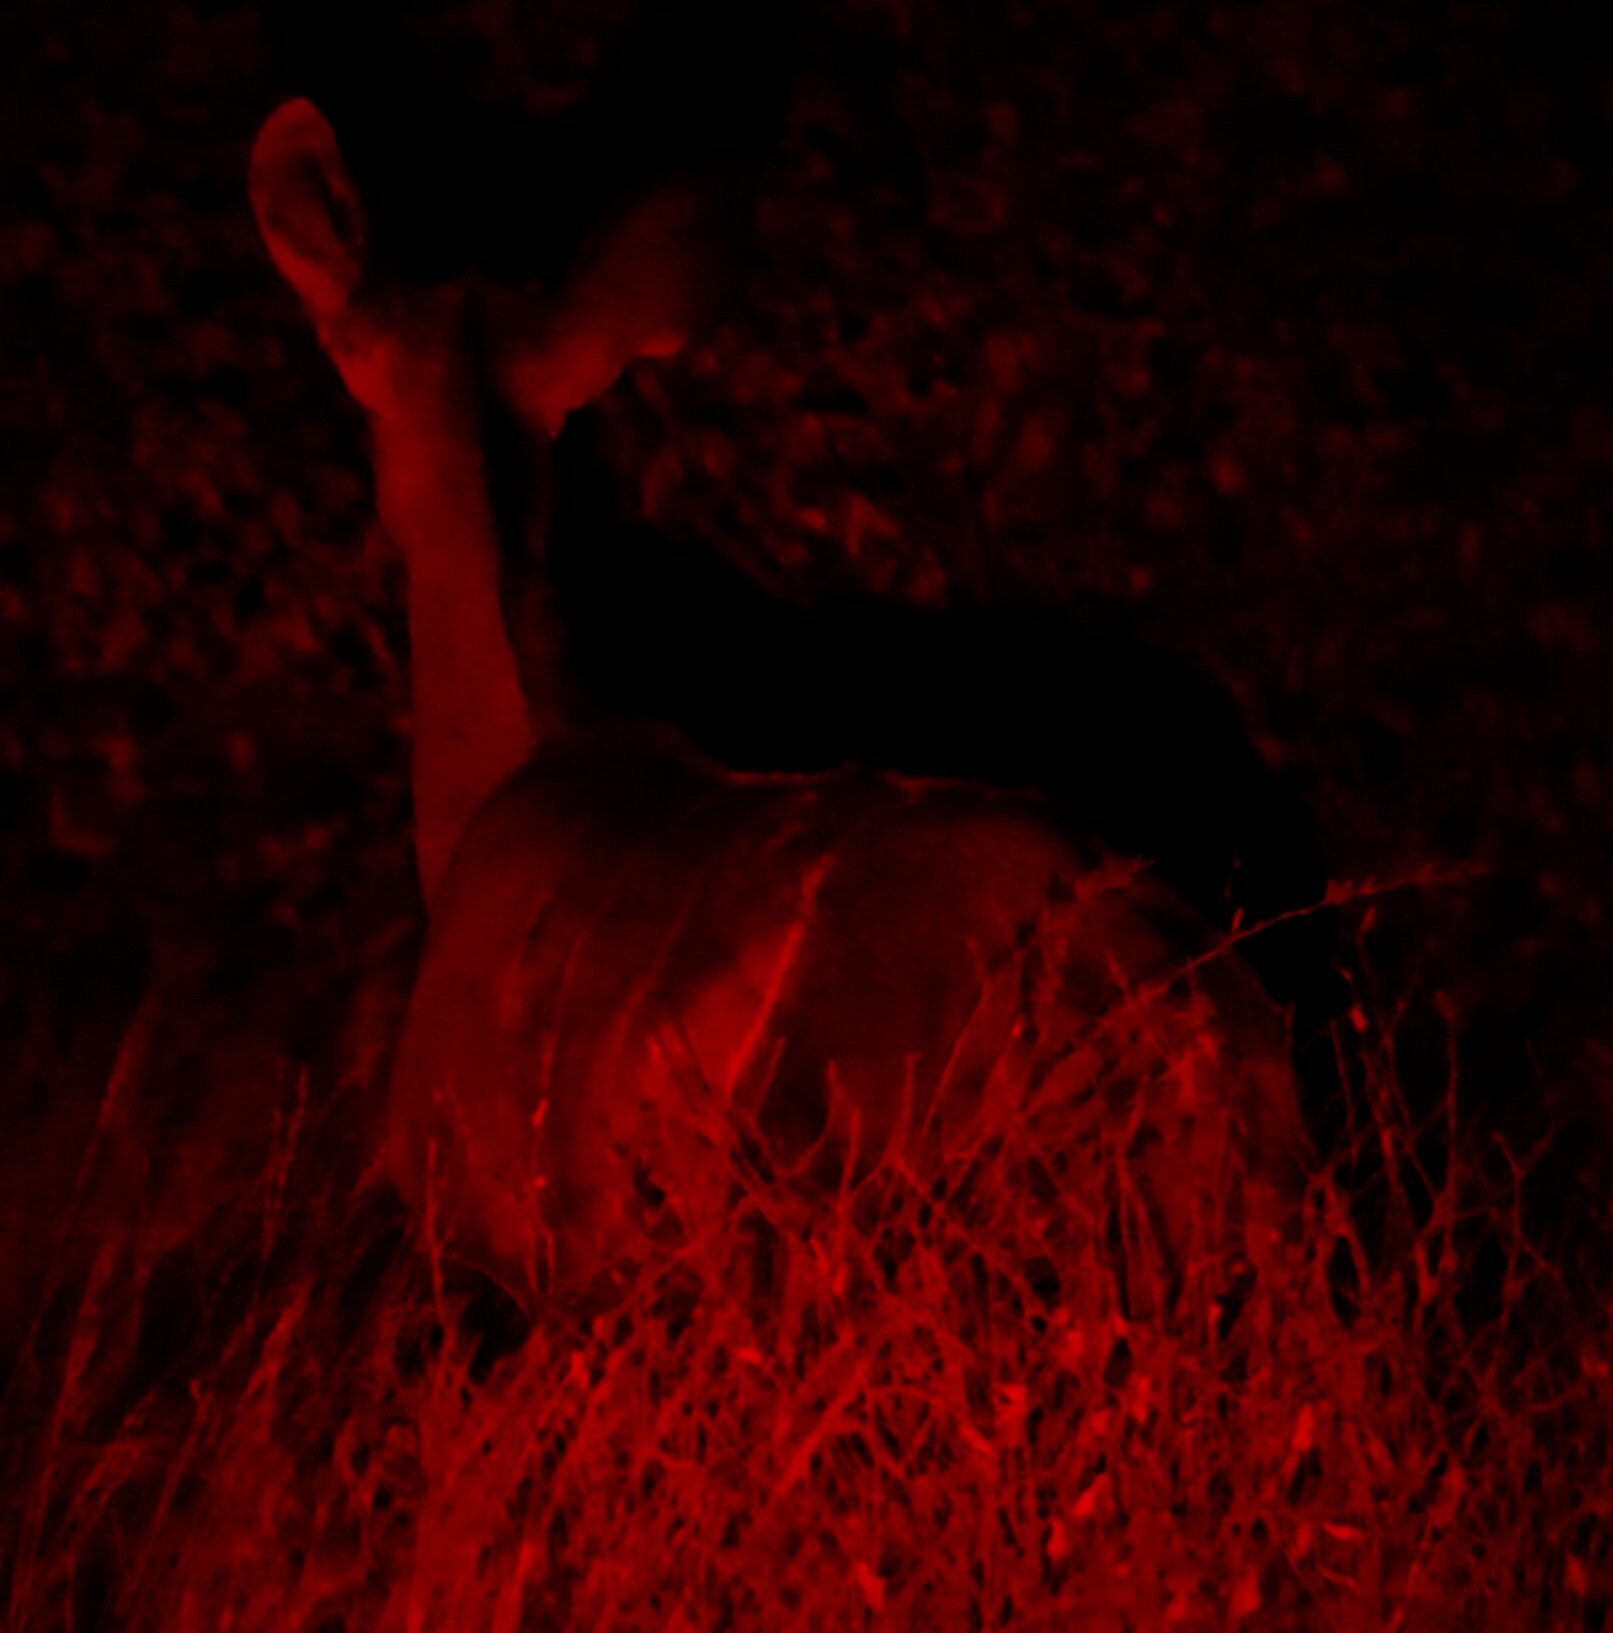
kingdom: Animalia
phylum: Chordata
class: Mammalia
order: Artiodactyla
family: Bovidae
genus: Tragelaphus
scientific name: Tragelaphus strepsiceros
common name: Greater kudu
